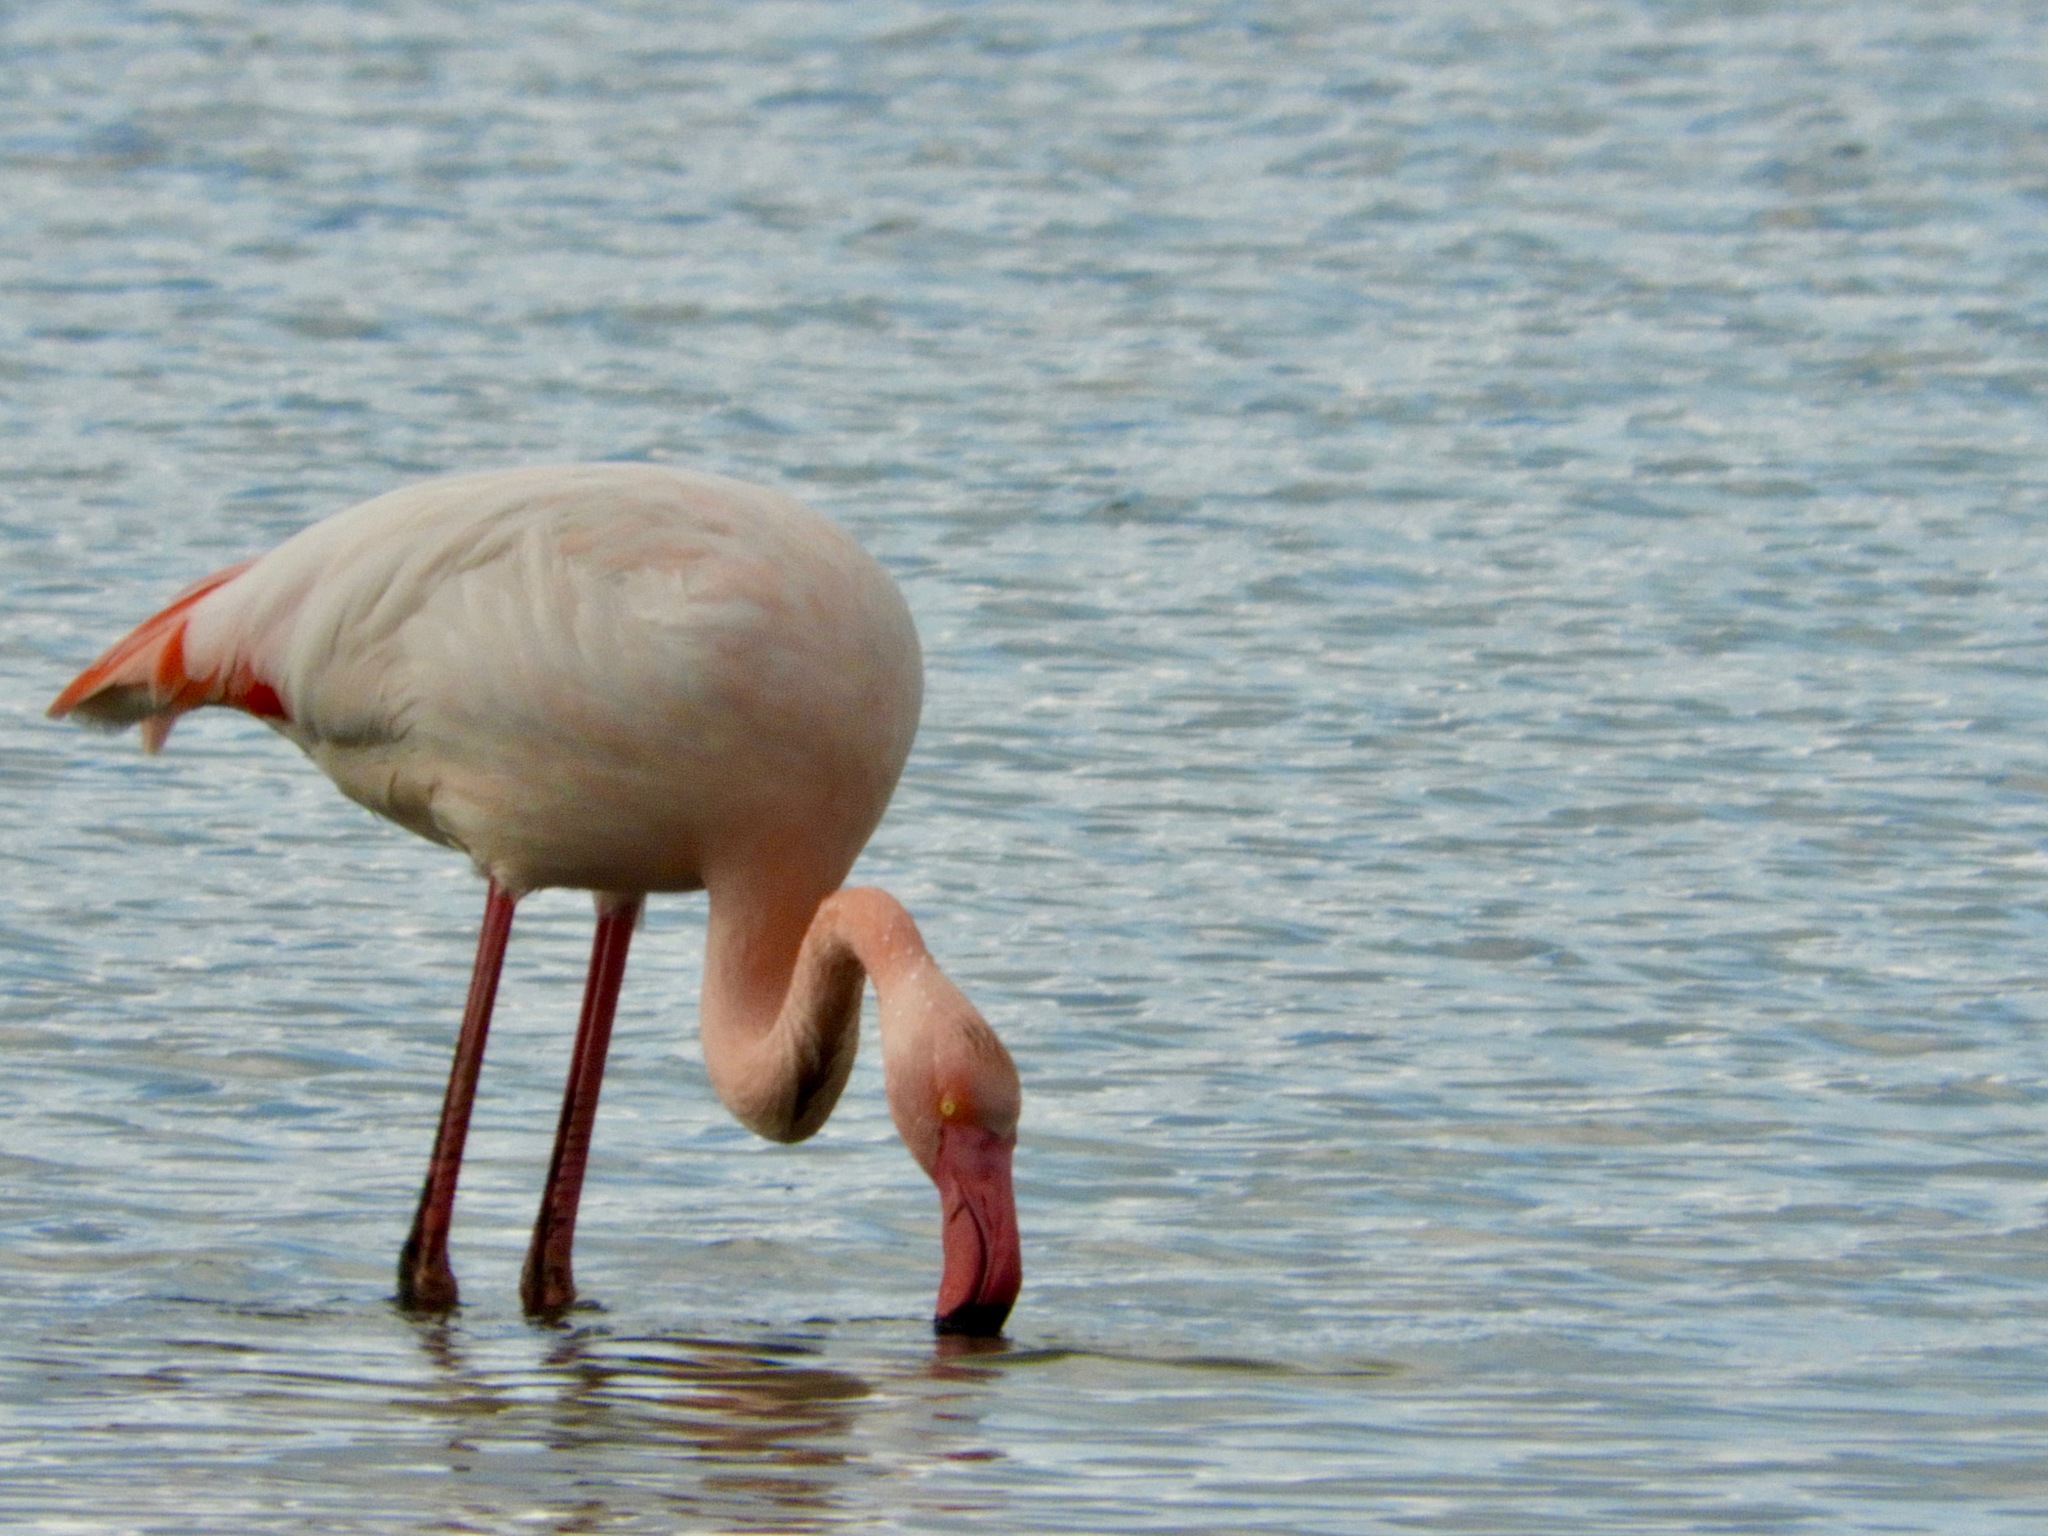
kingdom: Animalia
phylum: Chordata
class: Aves
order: Phoenicopteriformes
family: Phoenicopteridae
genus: Phoenicopterus
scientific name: Phoenicopterus roseus
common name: Greater flamingo
